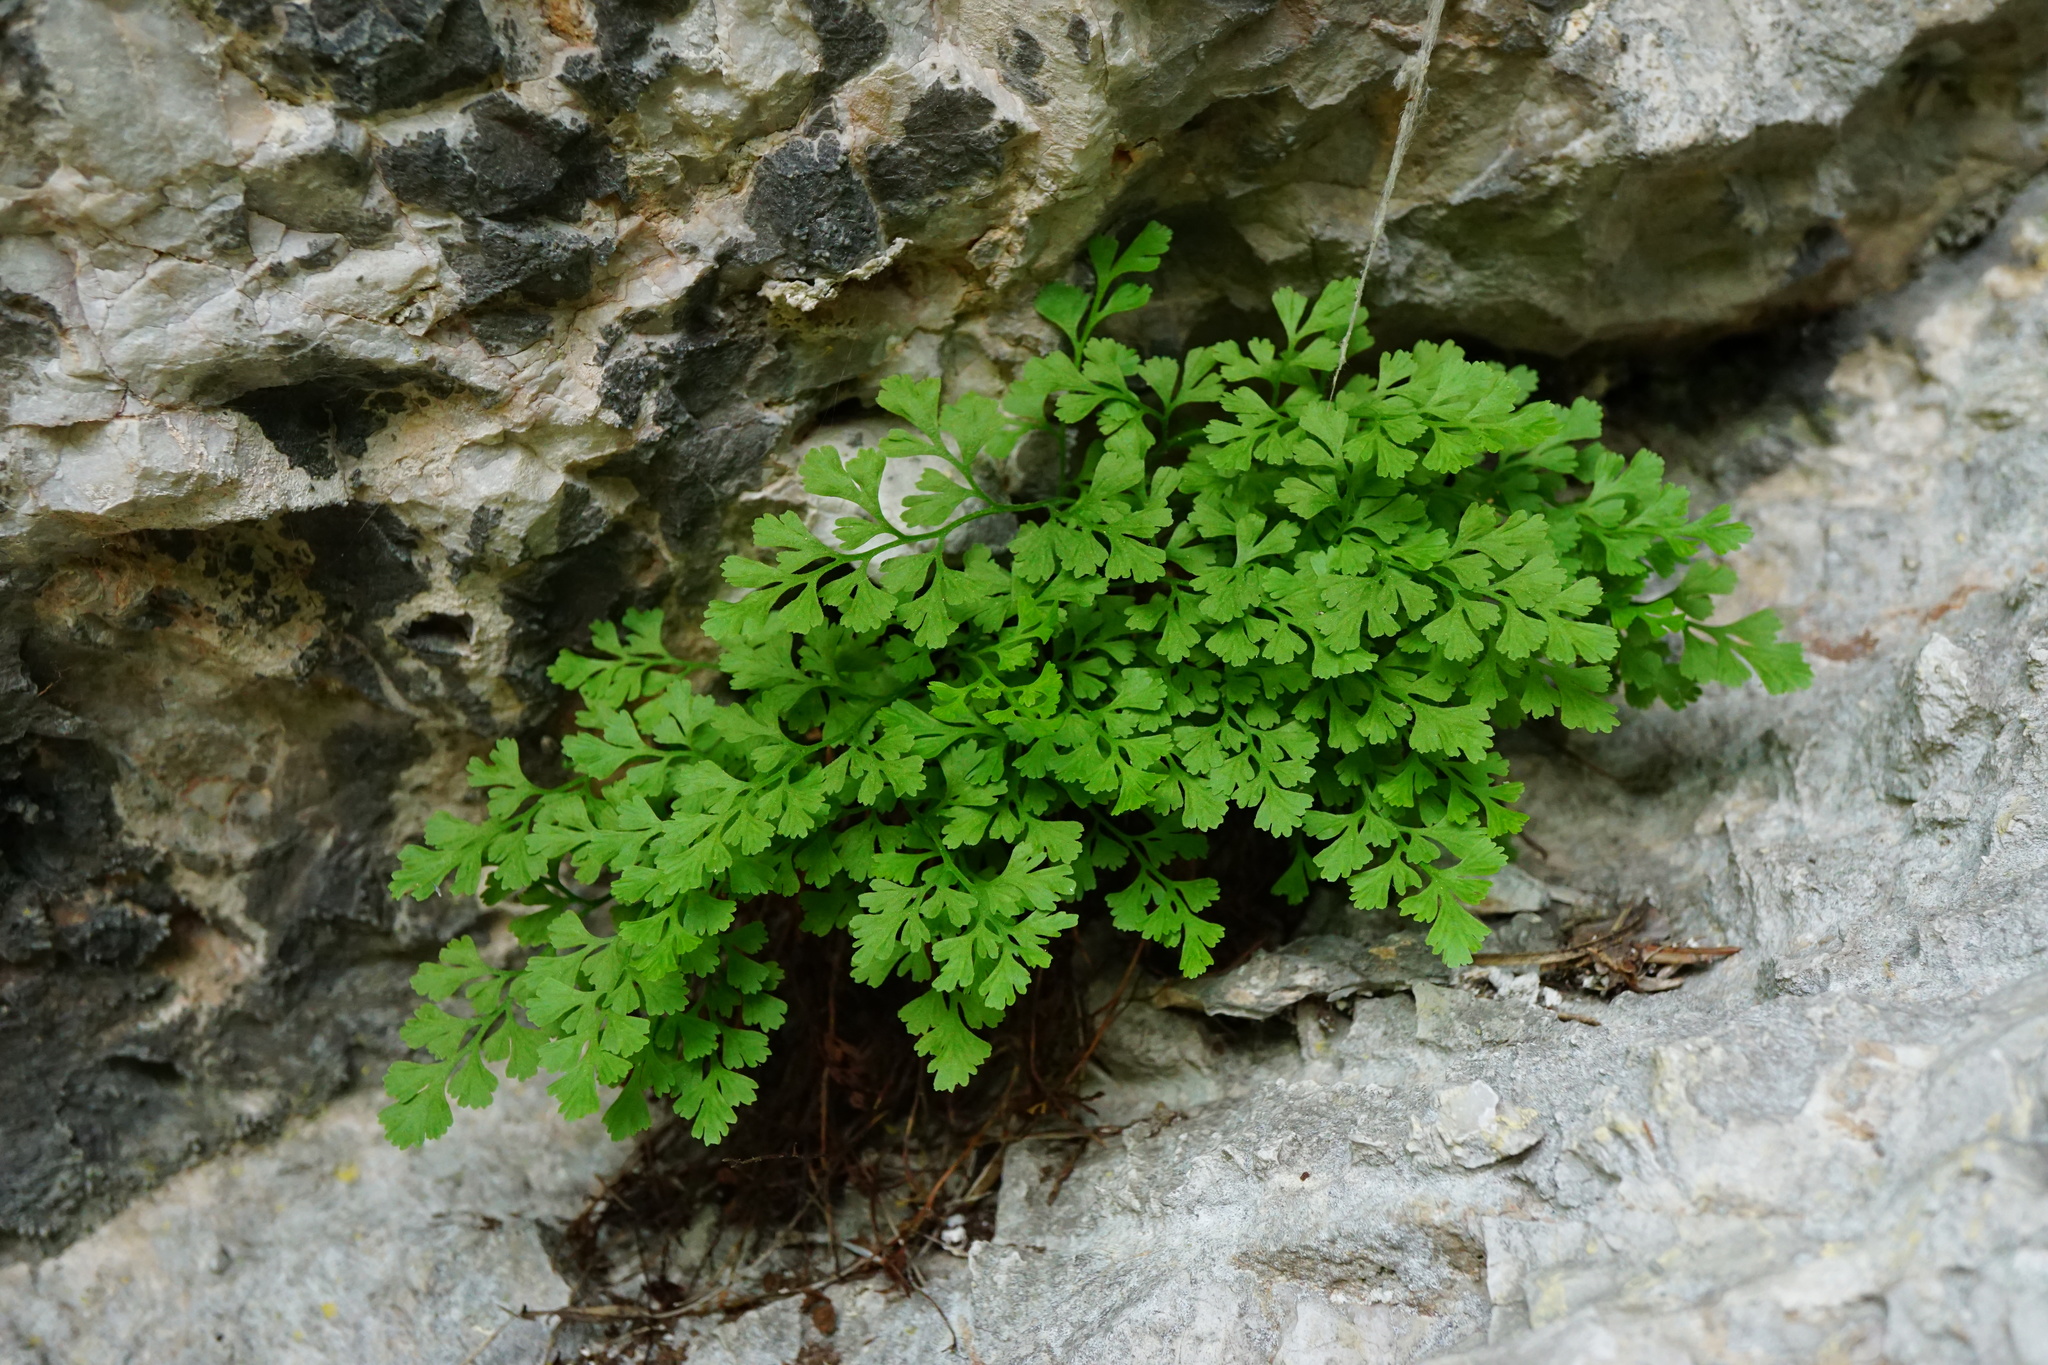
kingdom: Plantae
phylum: Tracheophyta
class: Polypodiopsida
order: Polypodiales
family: Aspleniaceae
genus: Asplenium
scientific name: Asplenium ruta-muraria
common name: Wall-rue
